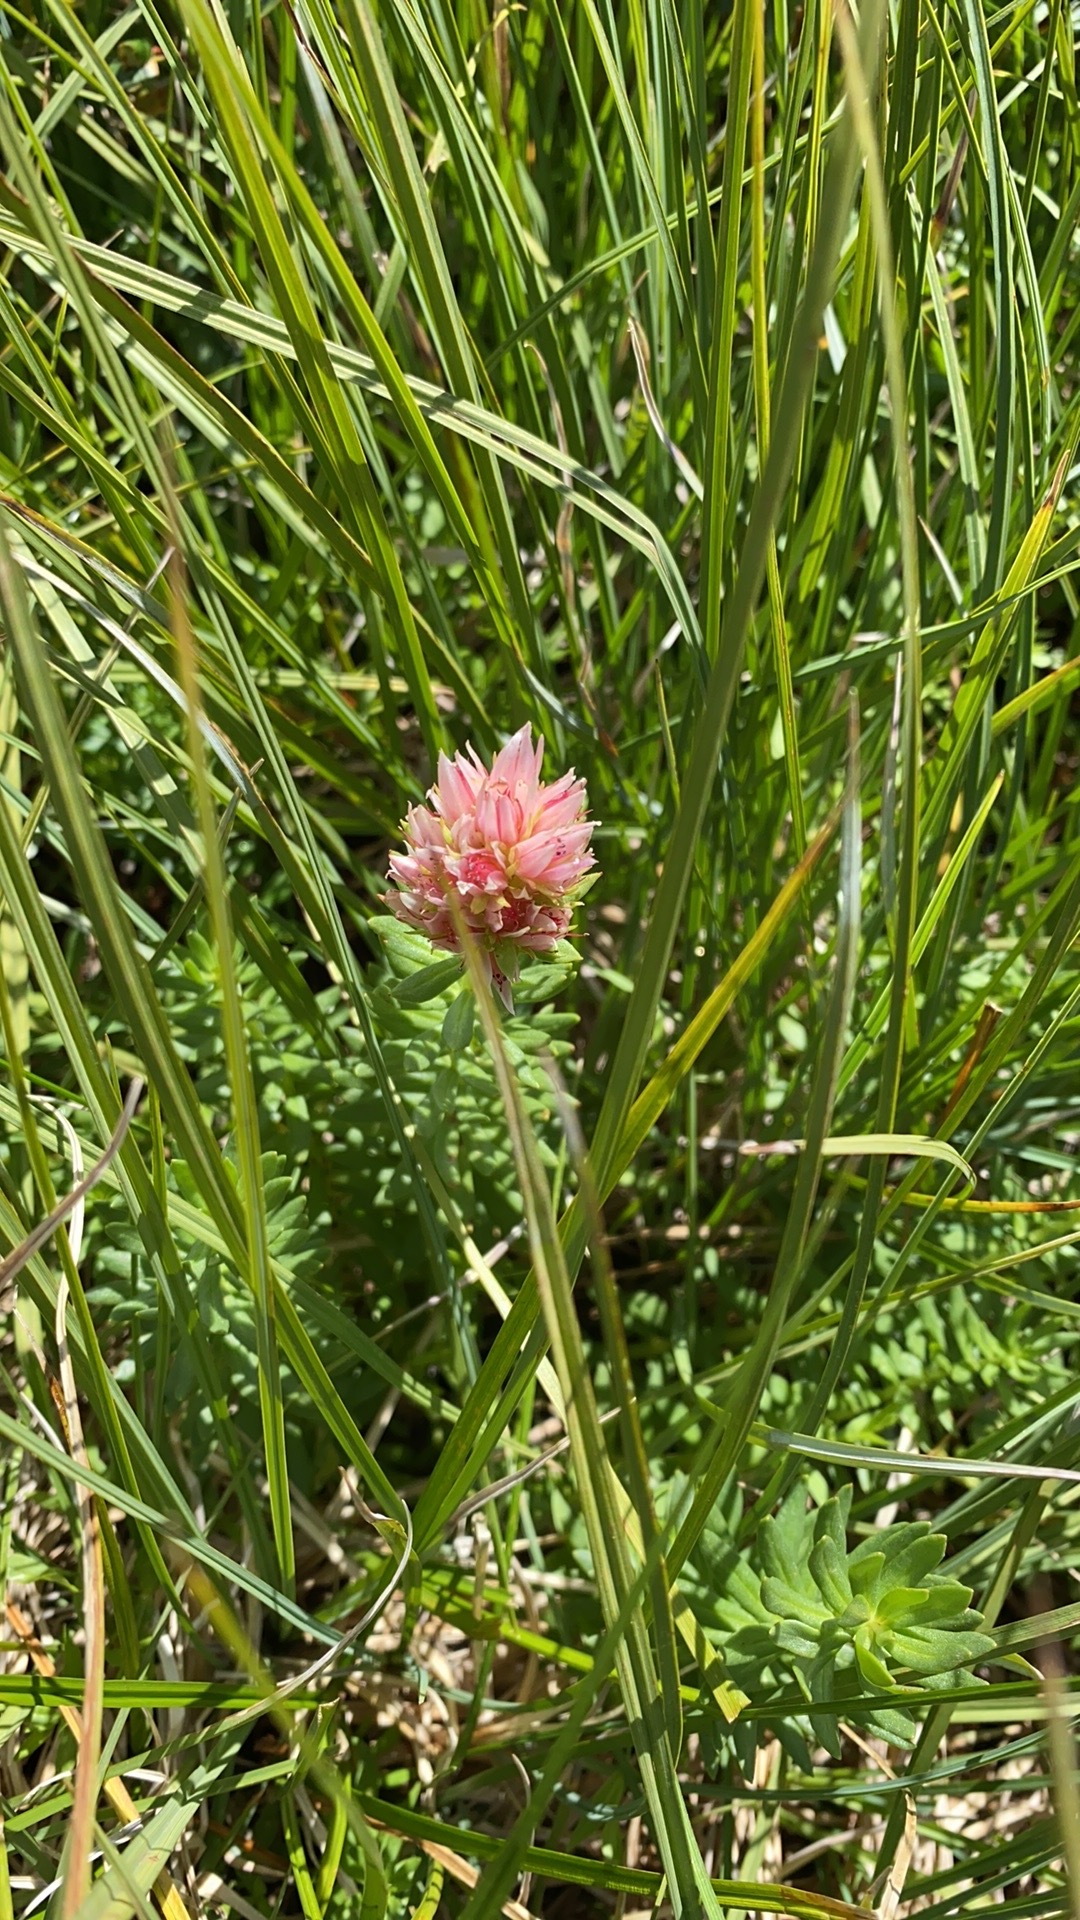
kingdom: Plantae
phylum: Tracheophyta
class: Magnoliopsida
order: Saxifragales
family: Crassulaceae
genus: Rhodiola
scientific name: Rhodiola rhodantha
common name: Red orpine
